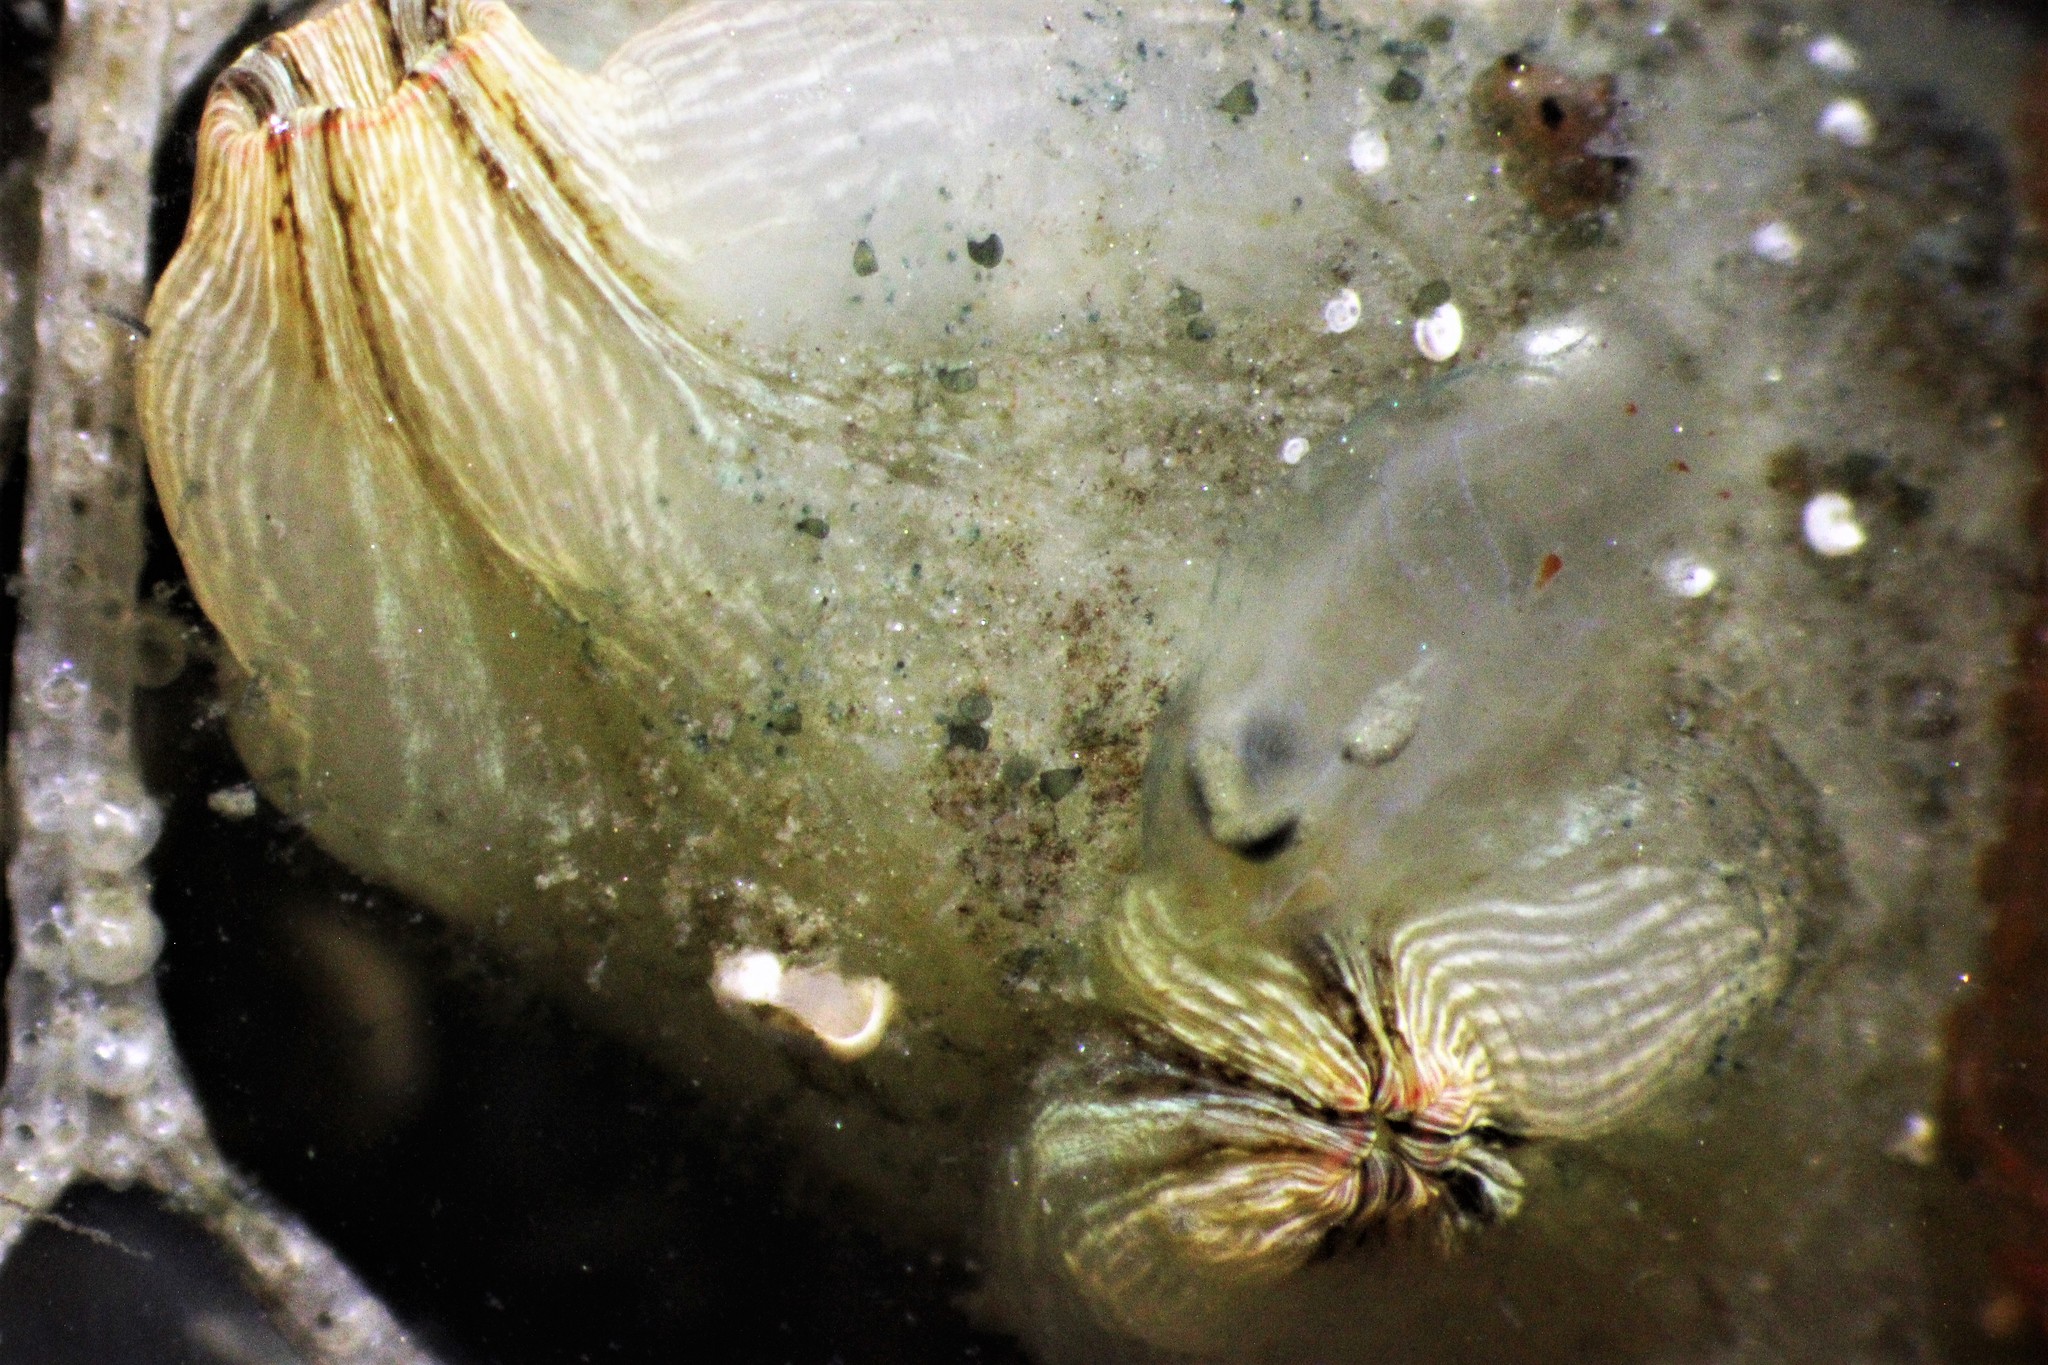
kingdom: Animalia
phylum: Chordata
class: Ascidiacea
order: Stolidobranchia
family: Styelidae
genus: Styela
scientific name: Styela plicata
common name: Pleated tunicate
